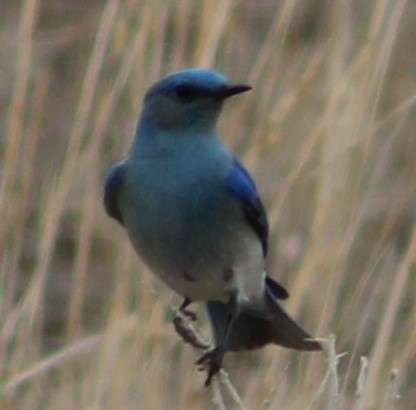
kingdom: Animalia
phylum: Chordata
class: Aves
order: Passeriformes
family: Turdidae
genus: Sialia
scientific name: Sialia currucoides
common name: Mountain bluebird
